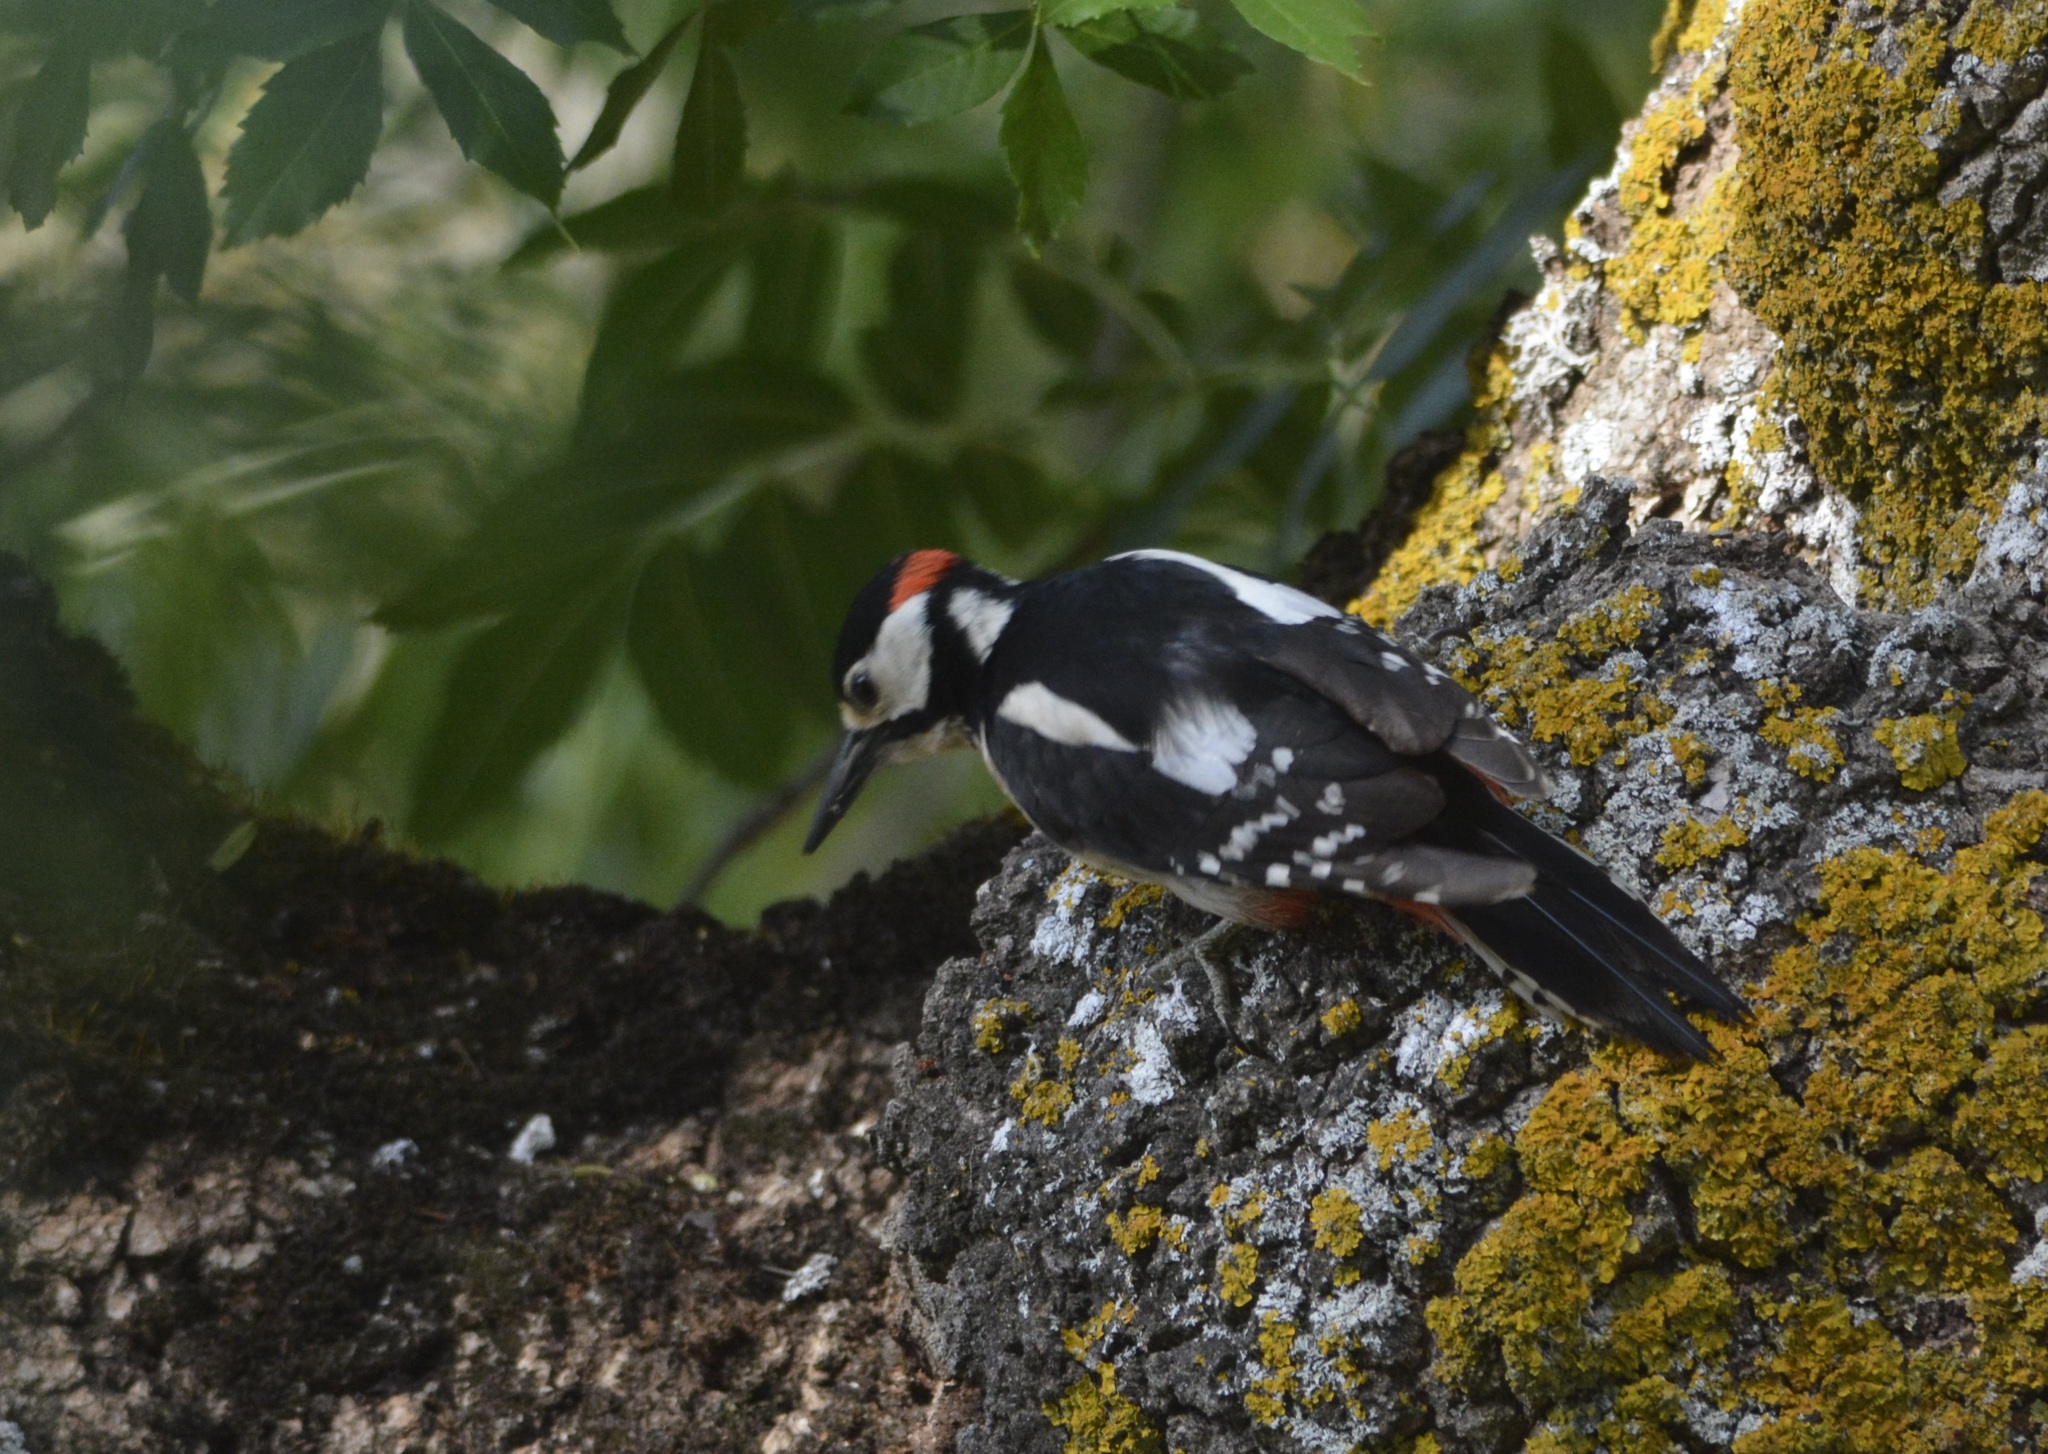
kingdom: Animalia
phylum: Chordata
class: Aves
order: Piciformes
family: Picidae
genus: Dendrocopos
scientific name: Dendrocopos major
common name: Great spotted woodpecker
